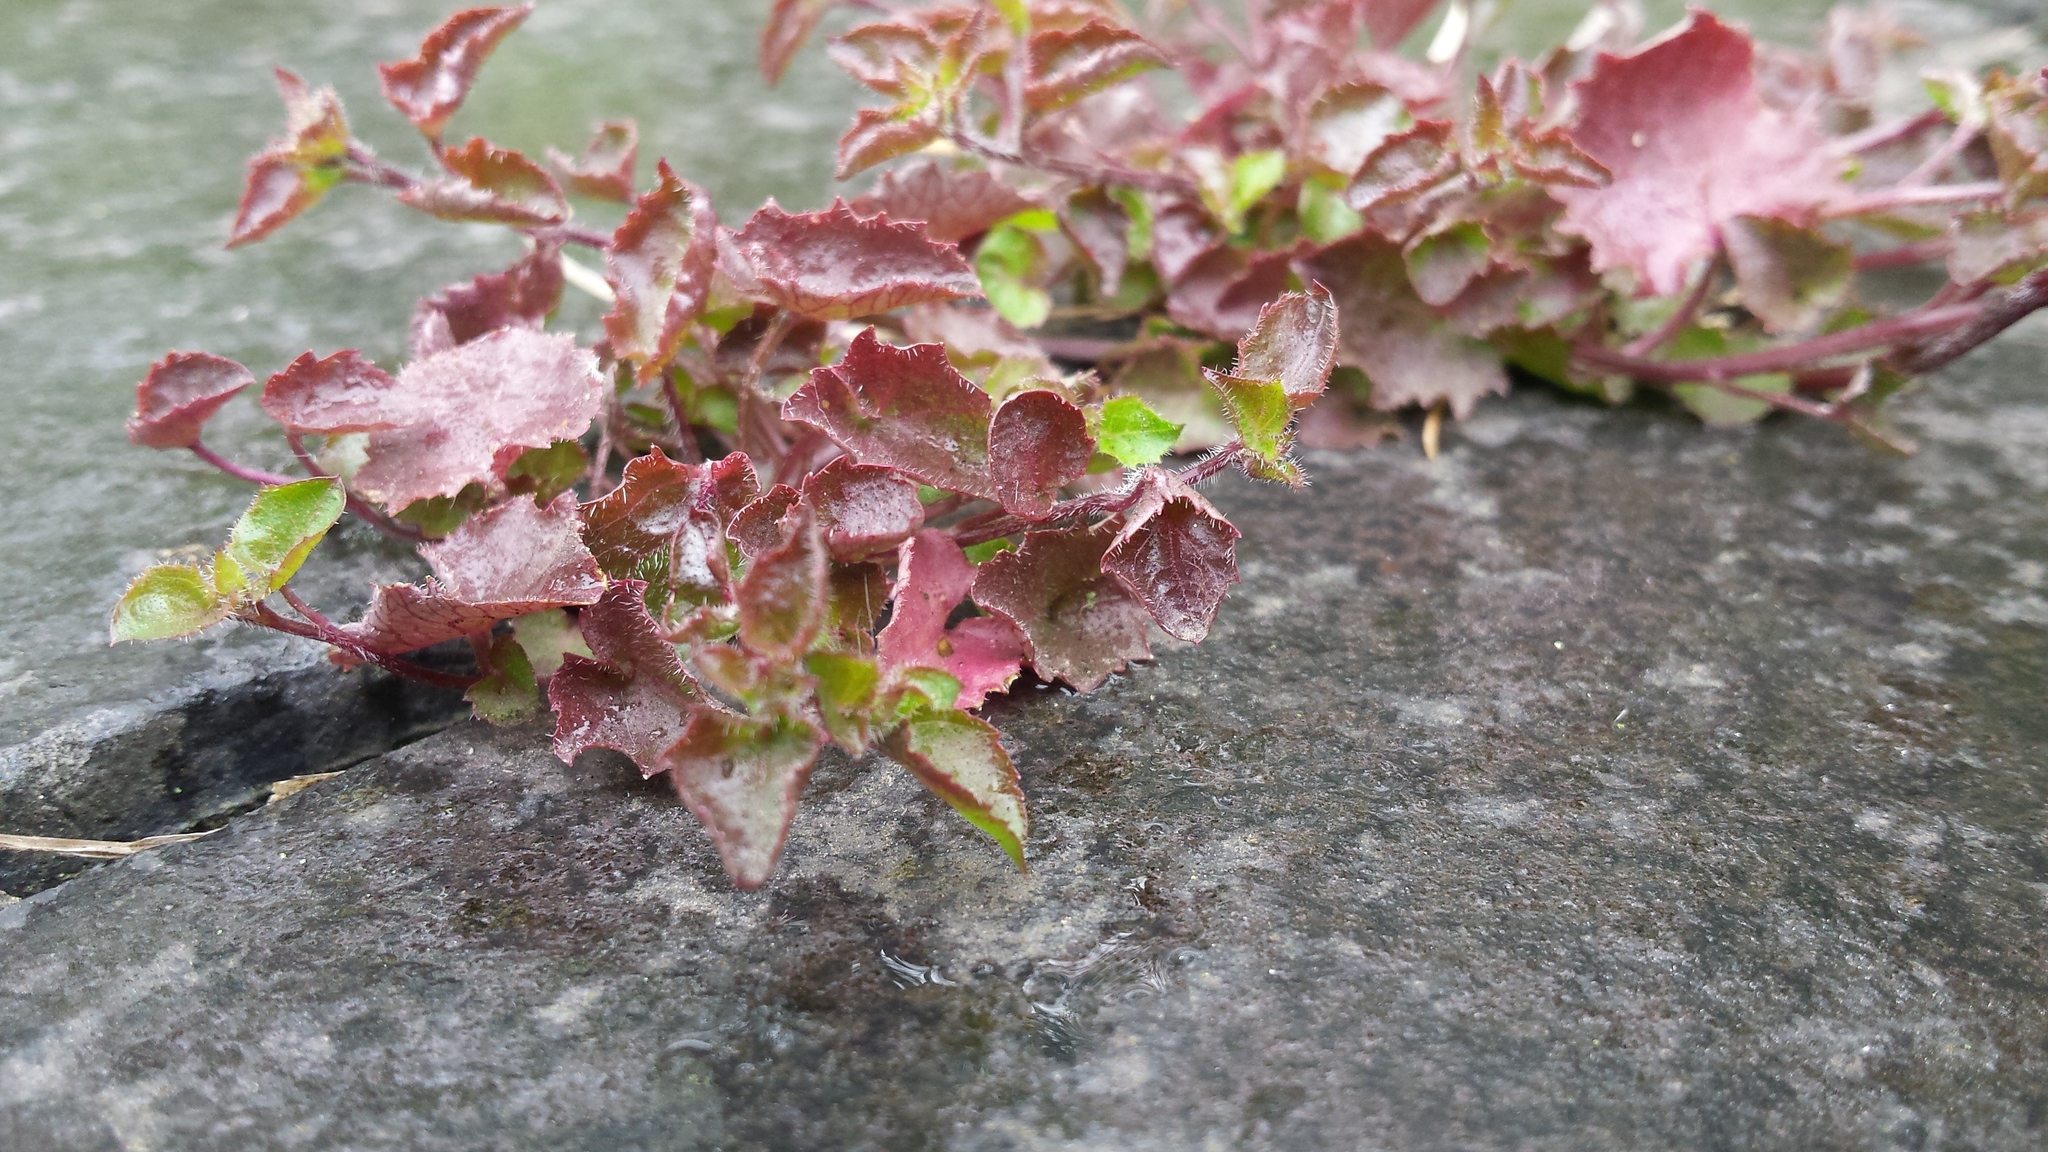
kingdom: Plantae
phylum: Tracheophyta
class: Magnoliopsida
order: Asterales
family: Campanulaceae
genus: Campanula
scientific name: Campanula poscharskyana
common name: Trailing bellflower
